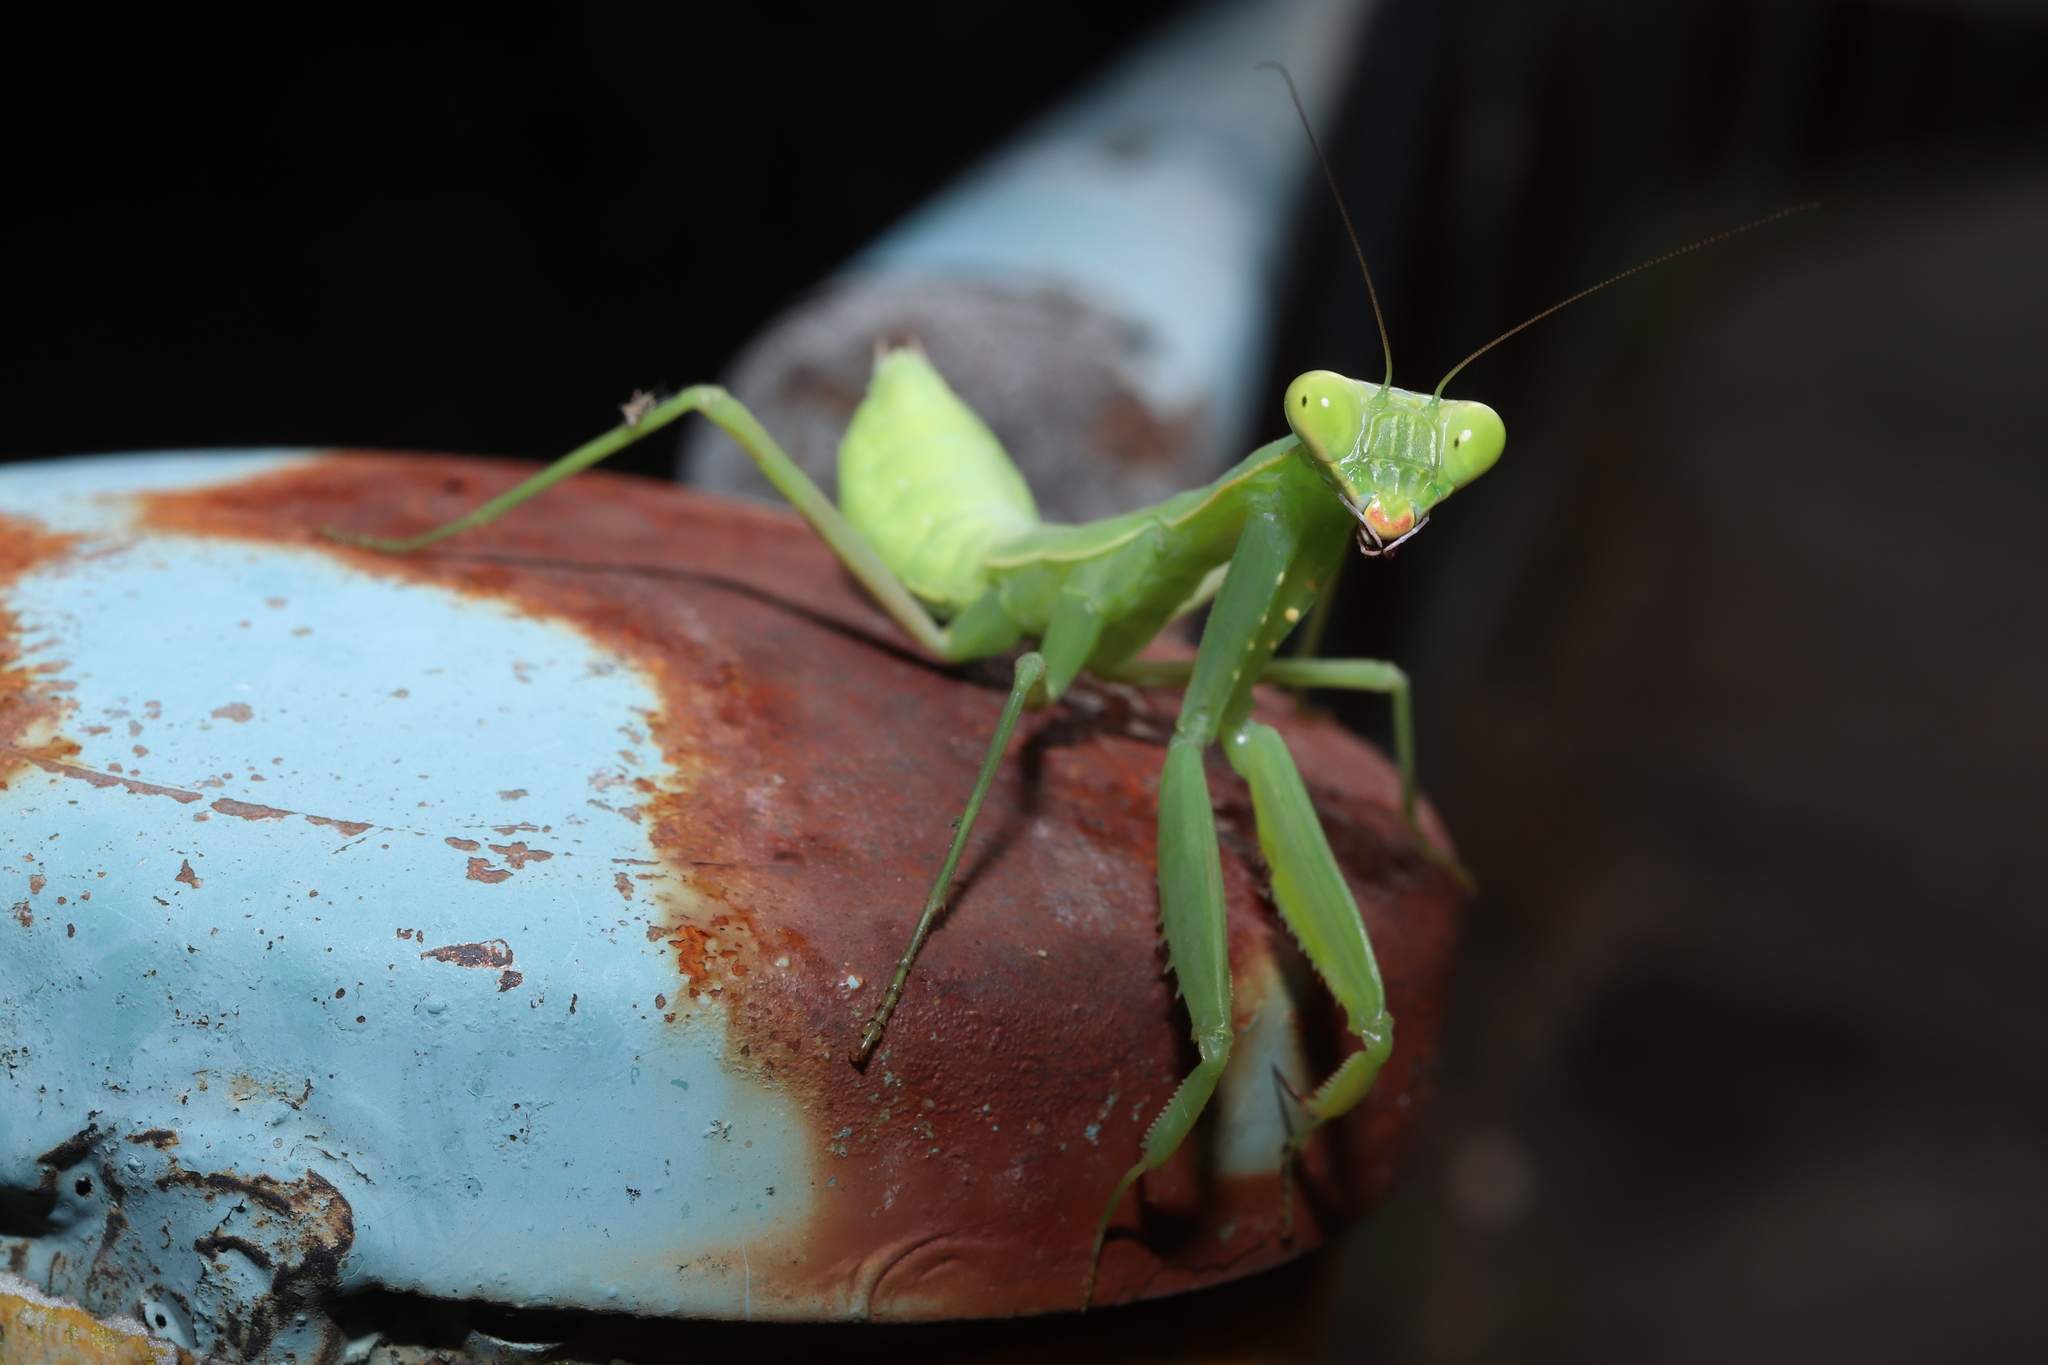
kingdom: Animalia
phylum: Arthropoda
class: Insecta
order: Mantodea
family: Mantidae
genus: Hierodula
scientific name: Hierodula patellifera
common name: Asian mantis
